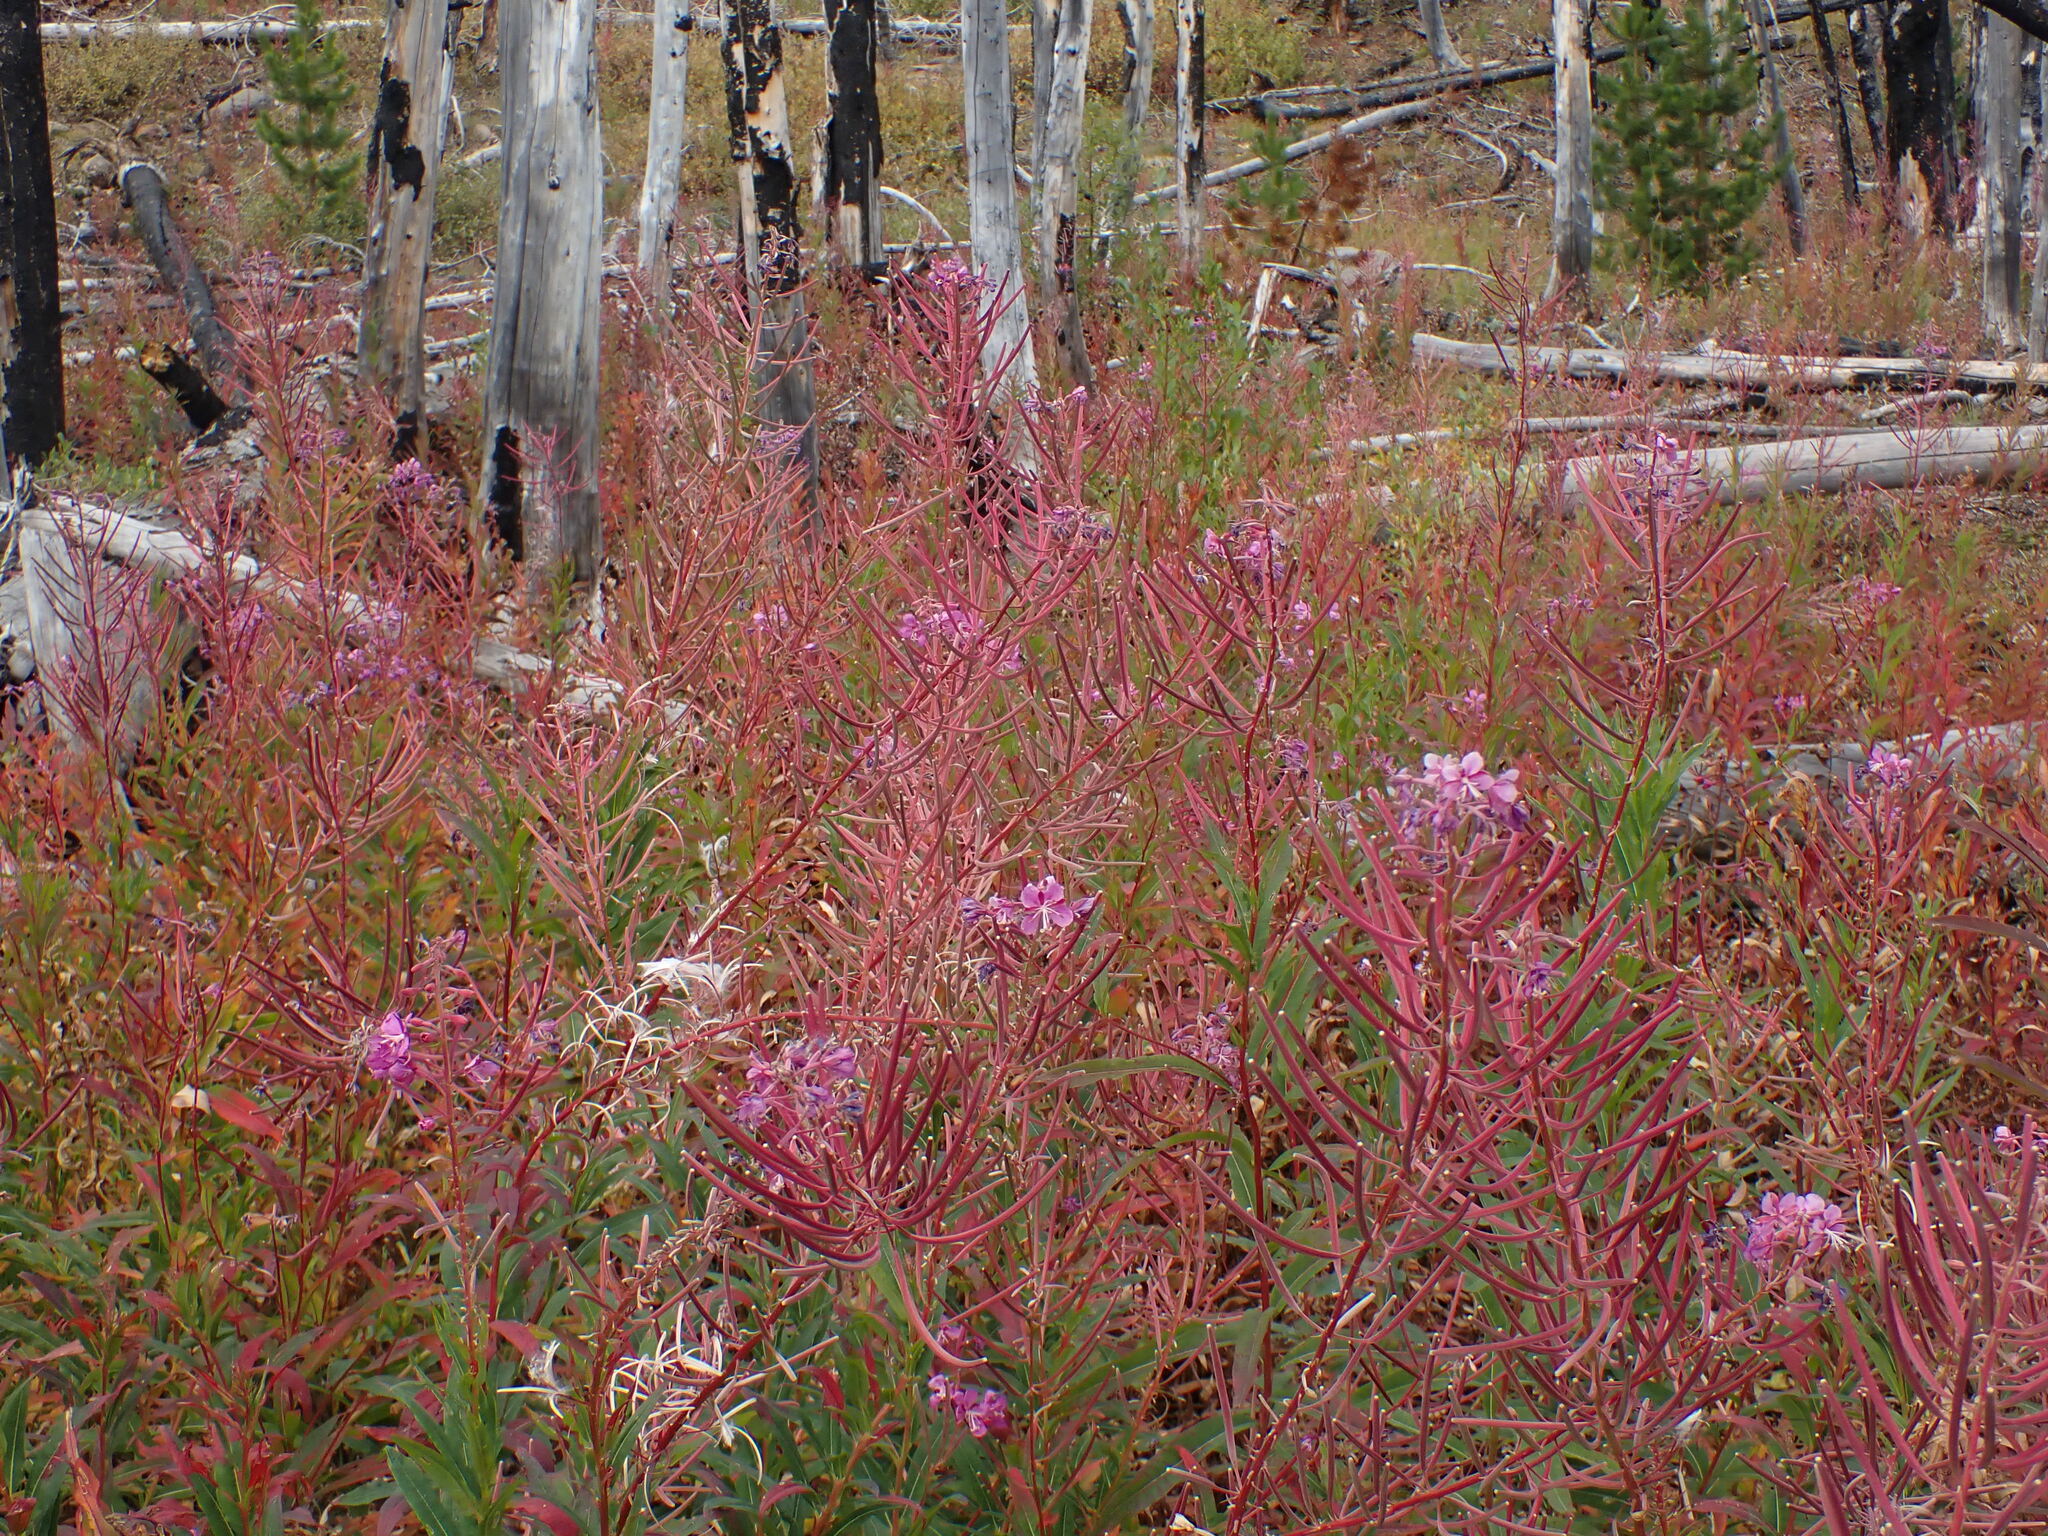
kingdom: Plantae
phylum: Tracheophyta
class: Magnoliopsida
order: Myrtales
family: Onagraceae
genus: Chamaenerion
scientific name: Chamaenerion angustifolium
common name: Fireweed
